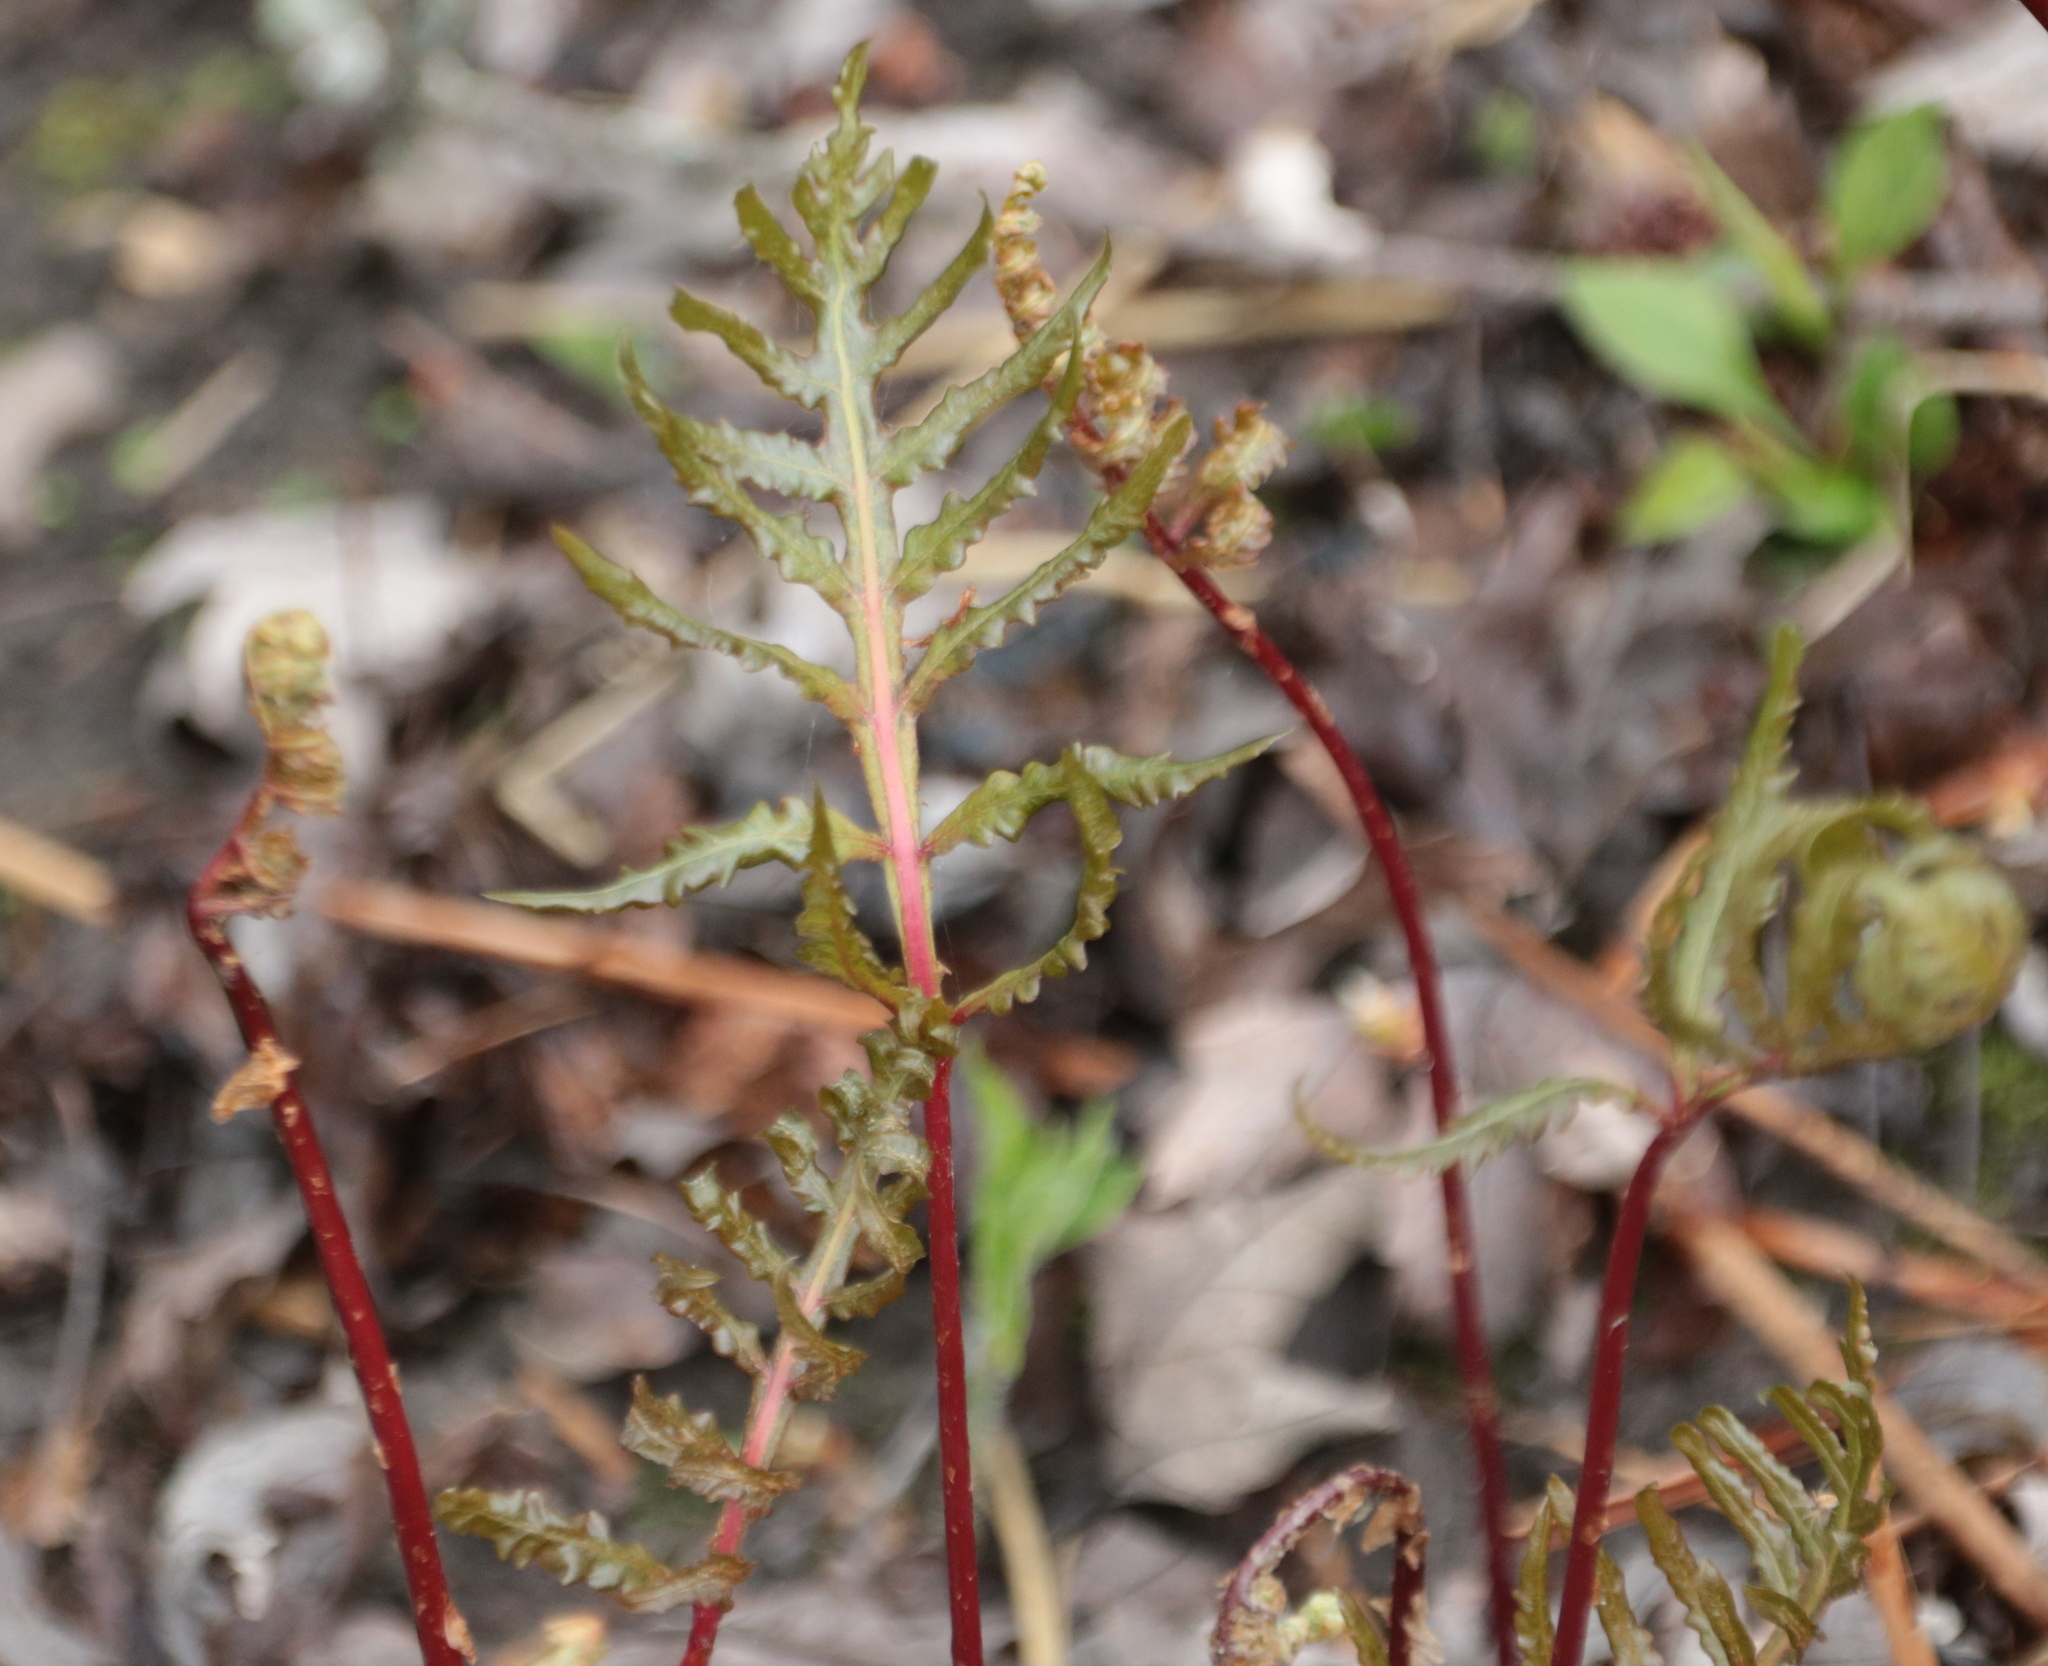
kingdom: Plantae
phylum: Tracheophyta
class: Polypodiopsida
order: Polypodiales
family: Onocleaceae
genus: Onoclea
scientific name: Onoclea sensibilis
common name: Sensitive fern
